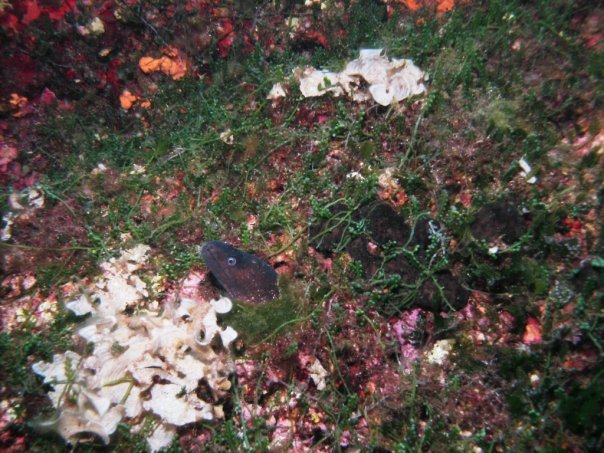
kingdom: Animalia
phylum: Chordata
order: Anguilliformes
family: Muraenidae
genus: Muraena
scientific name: Muraena helena
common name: Mediterranean moray
